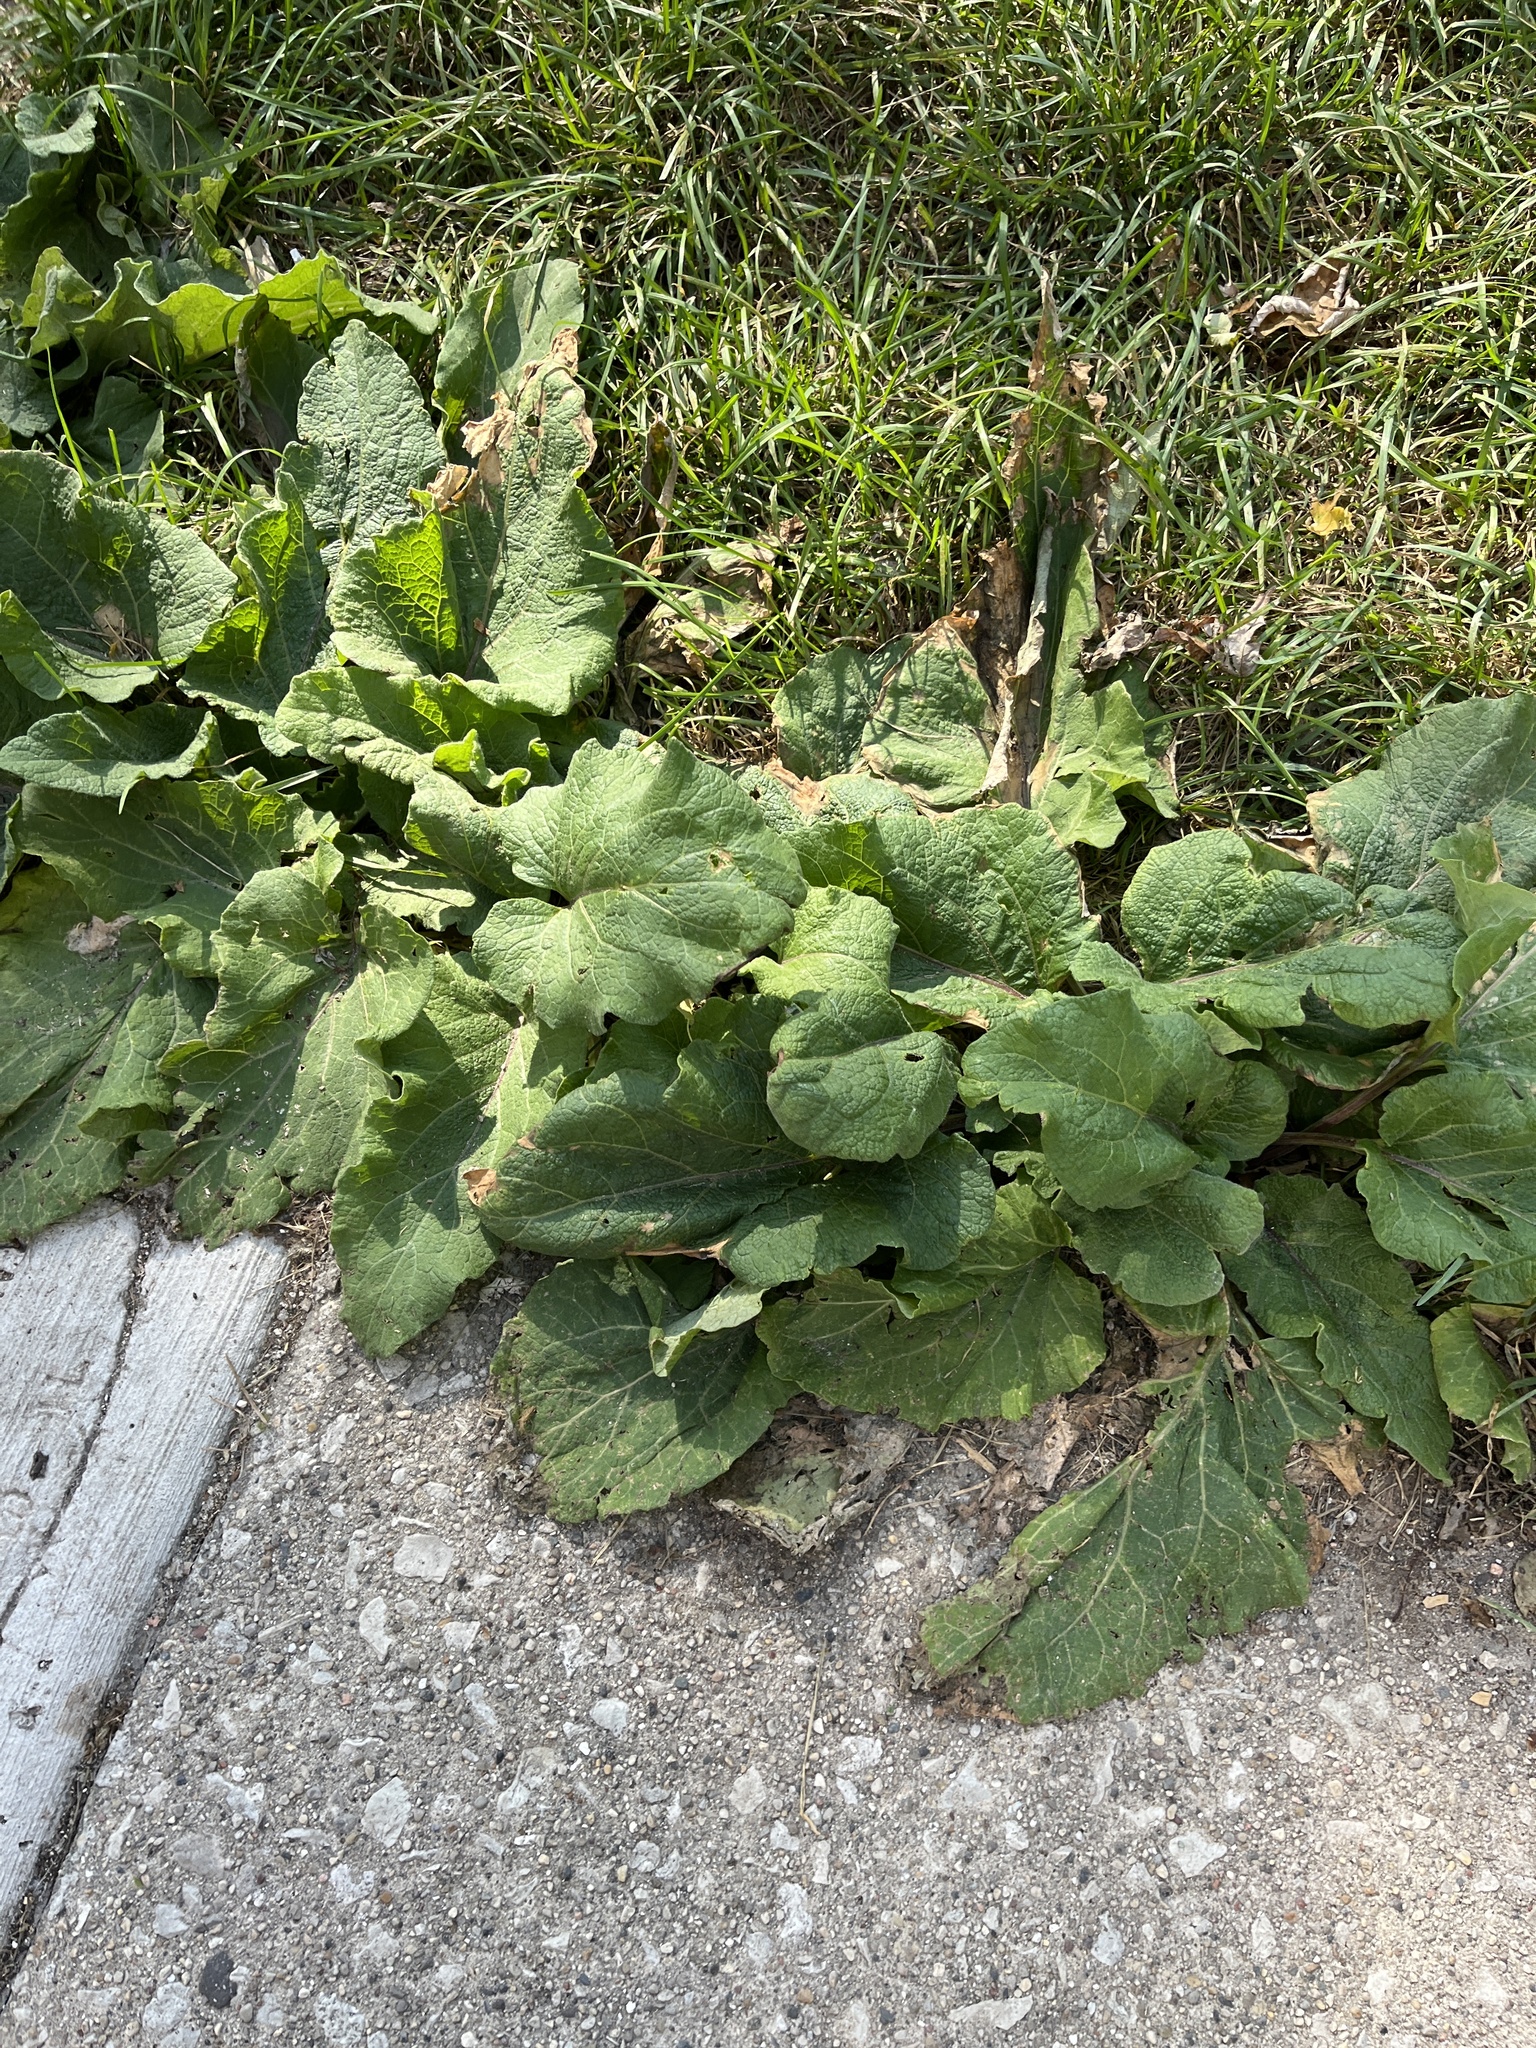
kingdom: Plantae
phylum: Tracheophyta
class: Magnoliopsida
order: Asterales
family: Asteraceae
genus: Arctium
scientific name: Arctium
